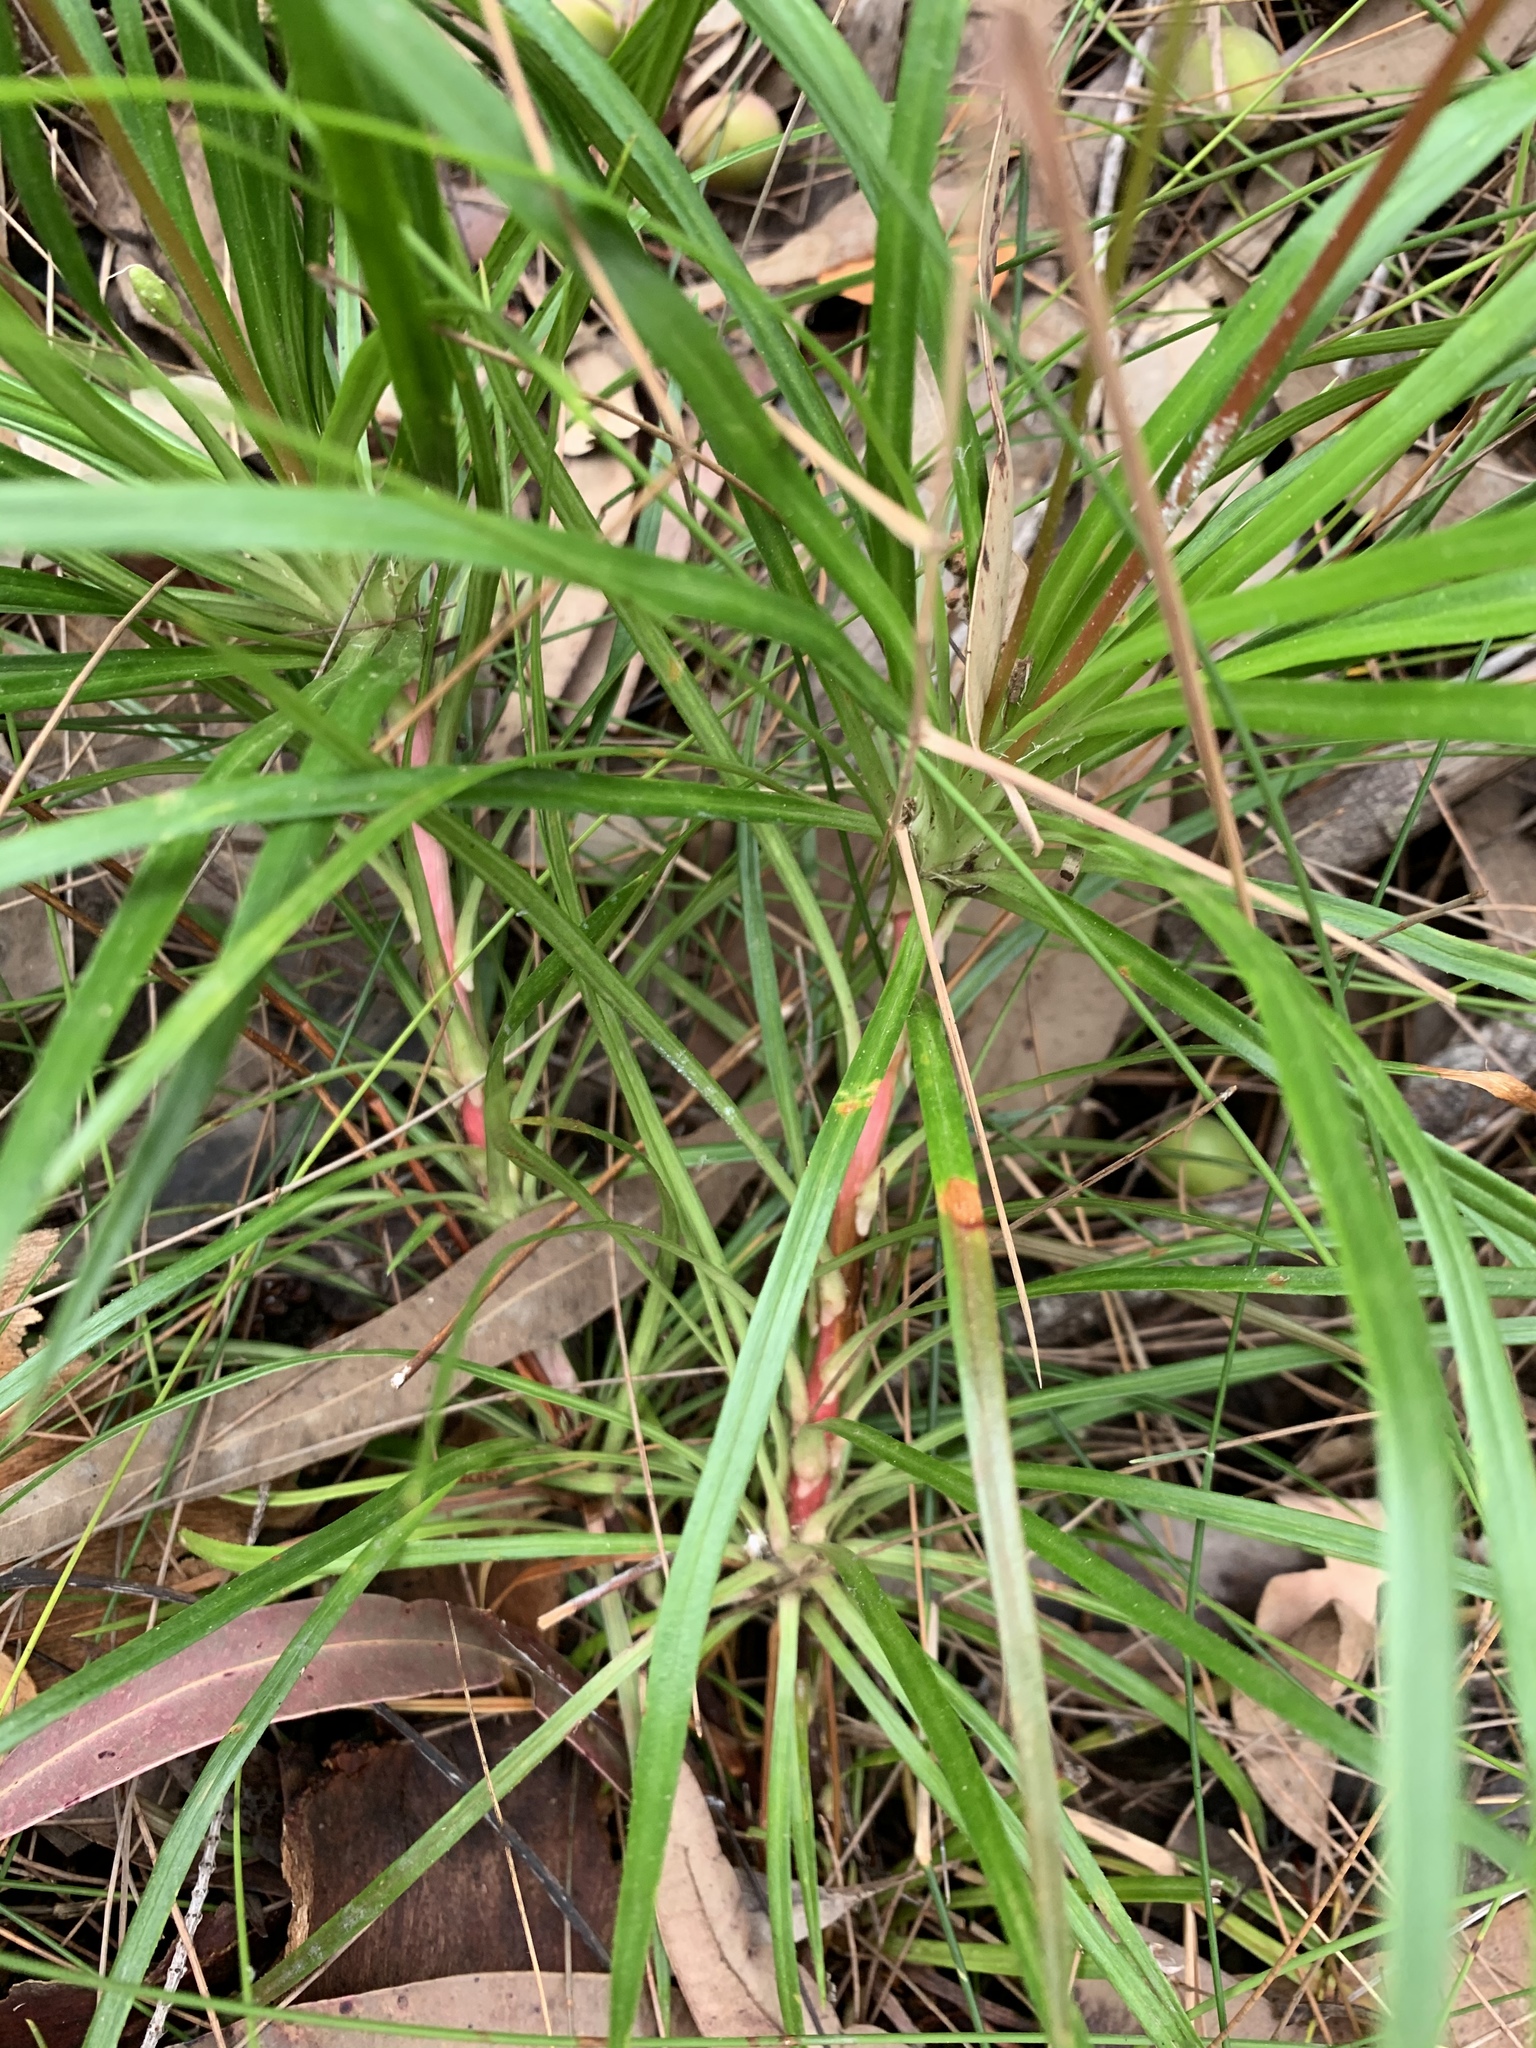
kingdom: Plantae
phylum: Tracheophyta
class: Magnoliopsida
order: Asterales
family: Stylidiaceae
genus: Stylidium
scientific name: Stylidium productum
